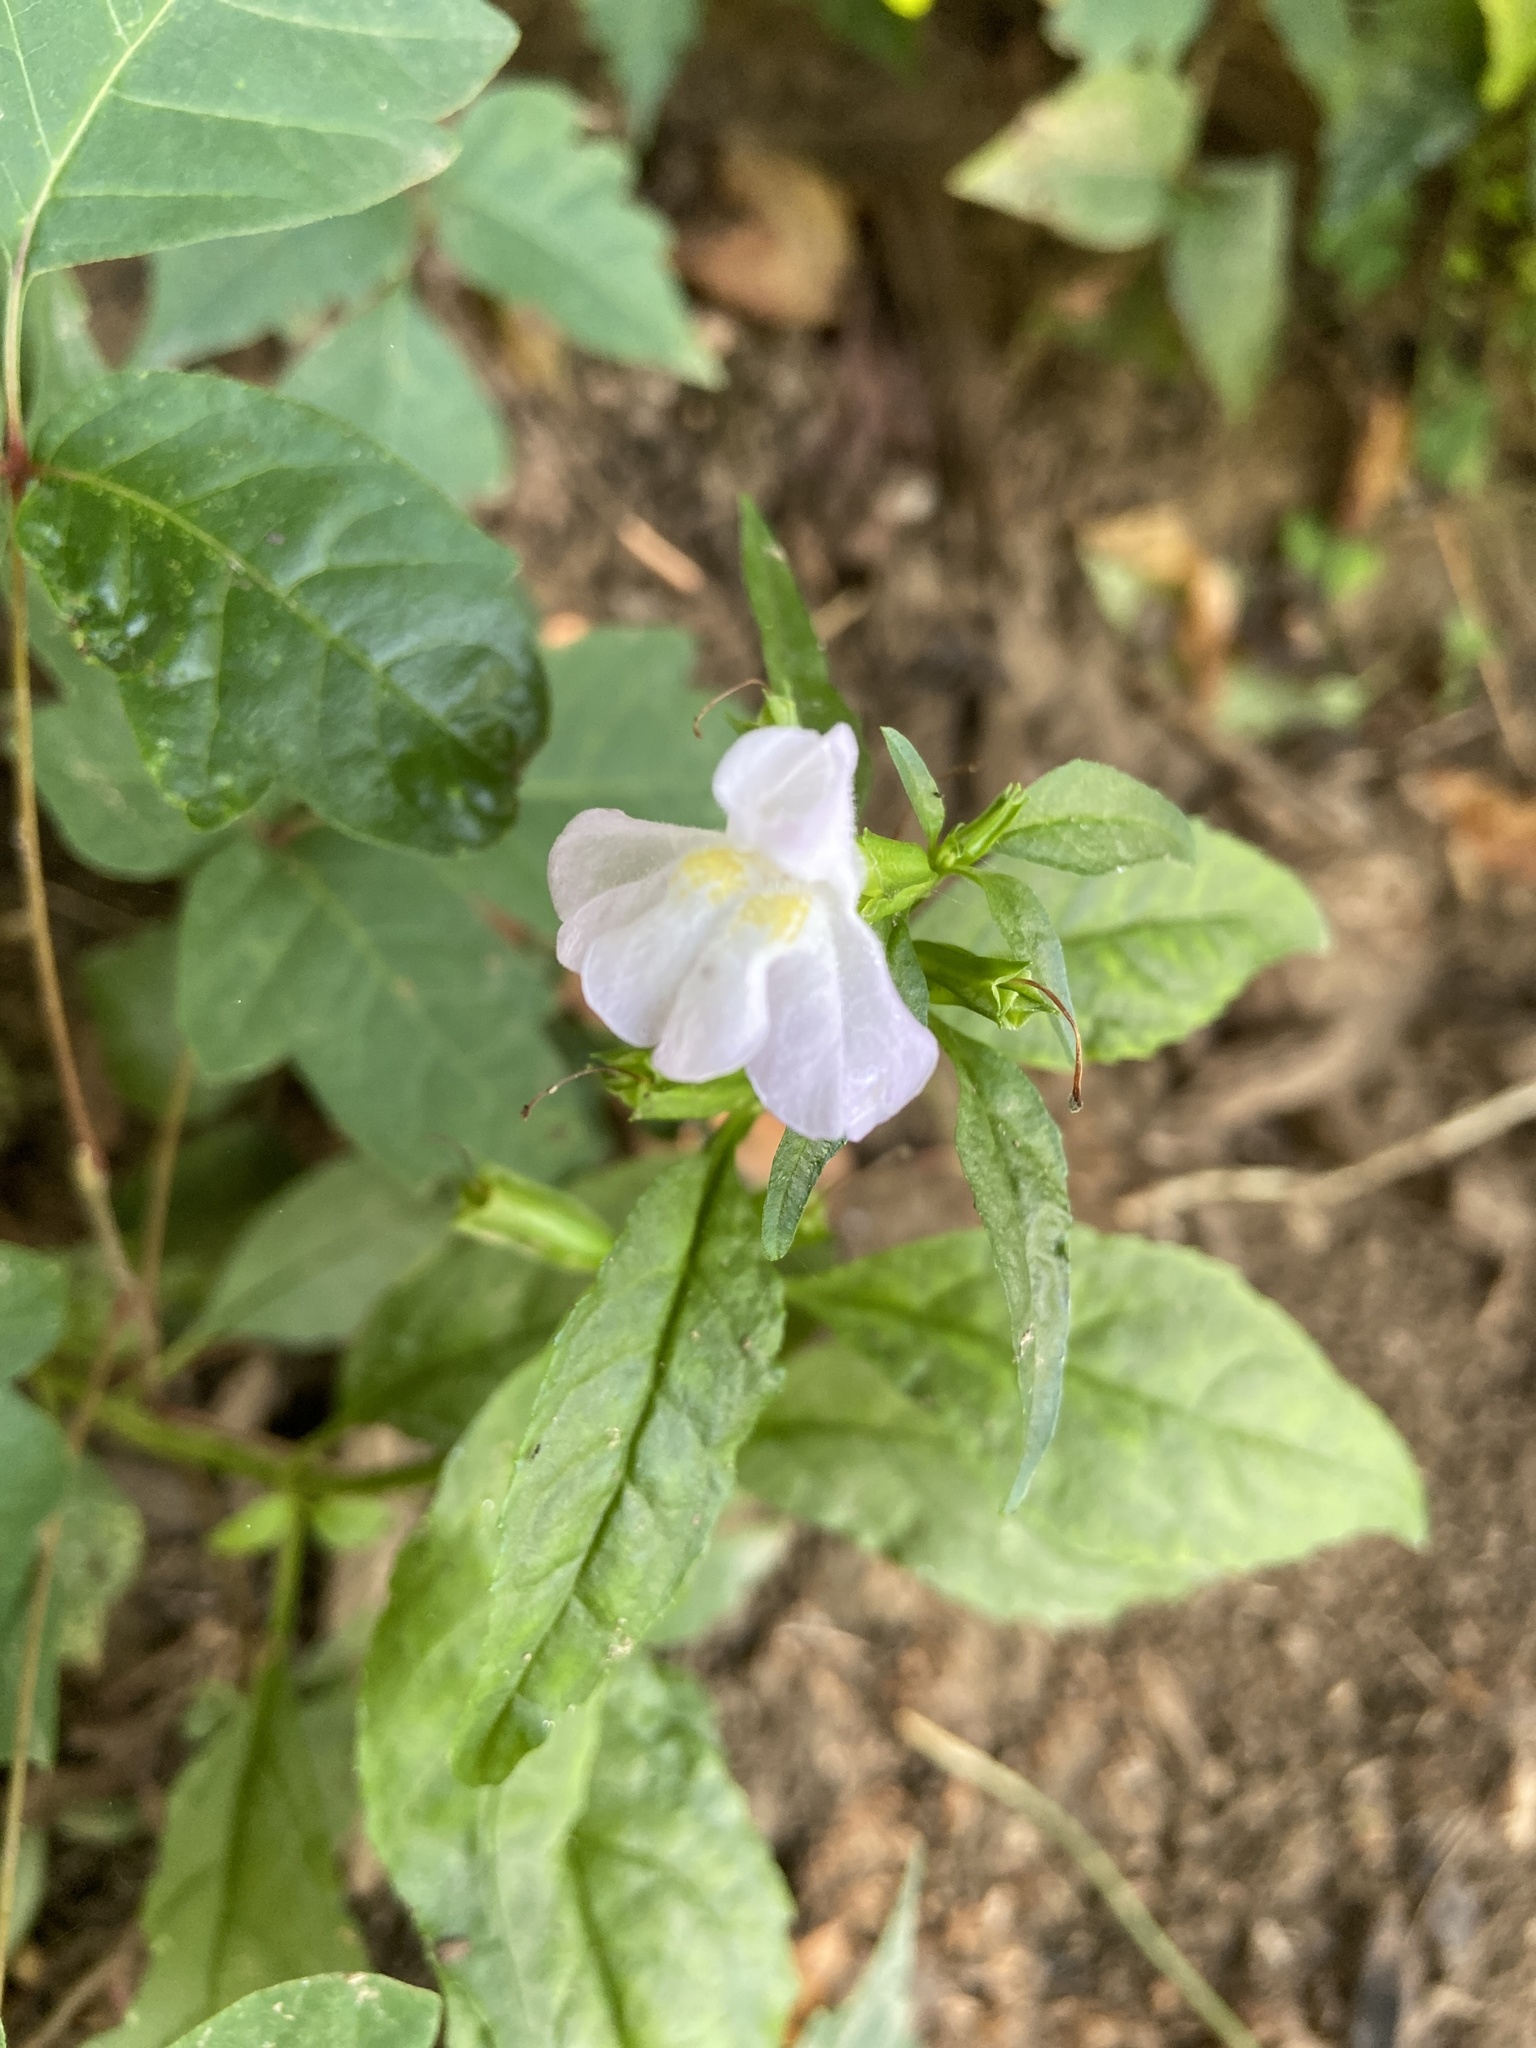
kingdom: Plantae
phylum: Tracheophyta
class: Magnoliopsida
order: Lamiales
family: Phrymaceae
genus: Mimulus
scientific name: Mimulus alatus
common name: Sharp-wing monkey-flower
